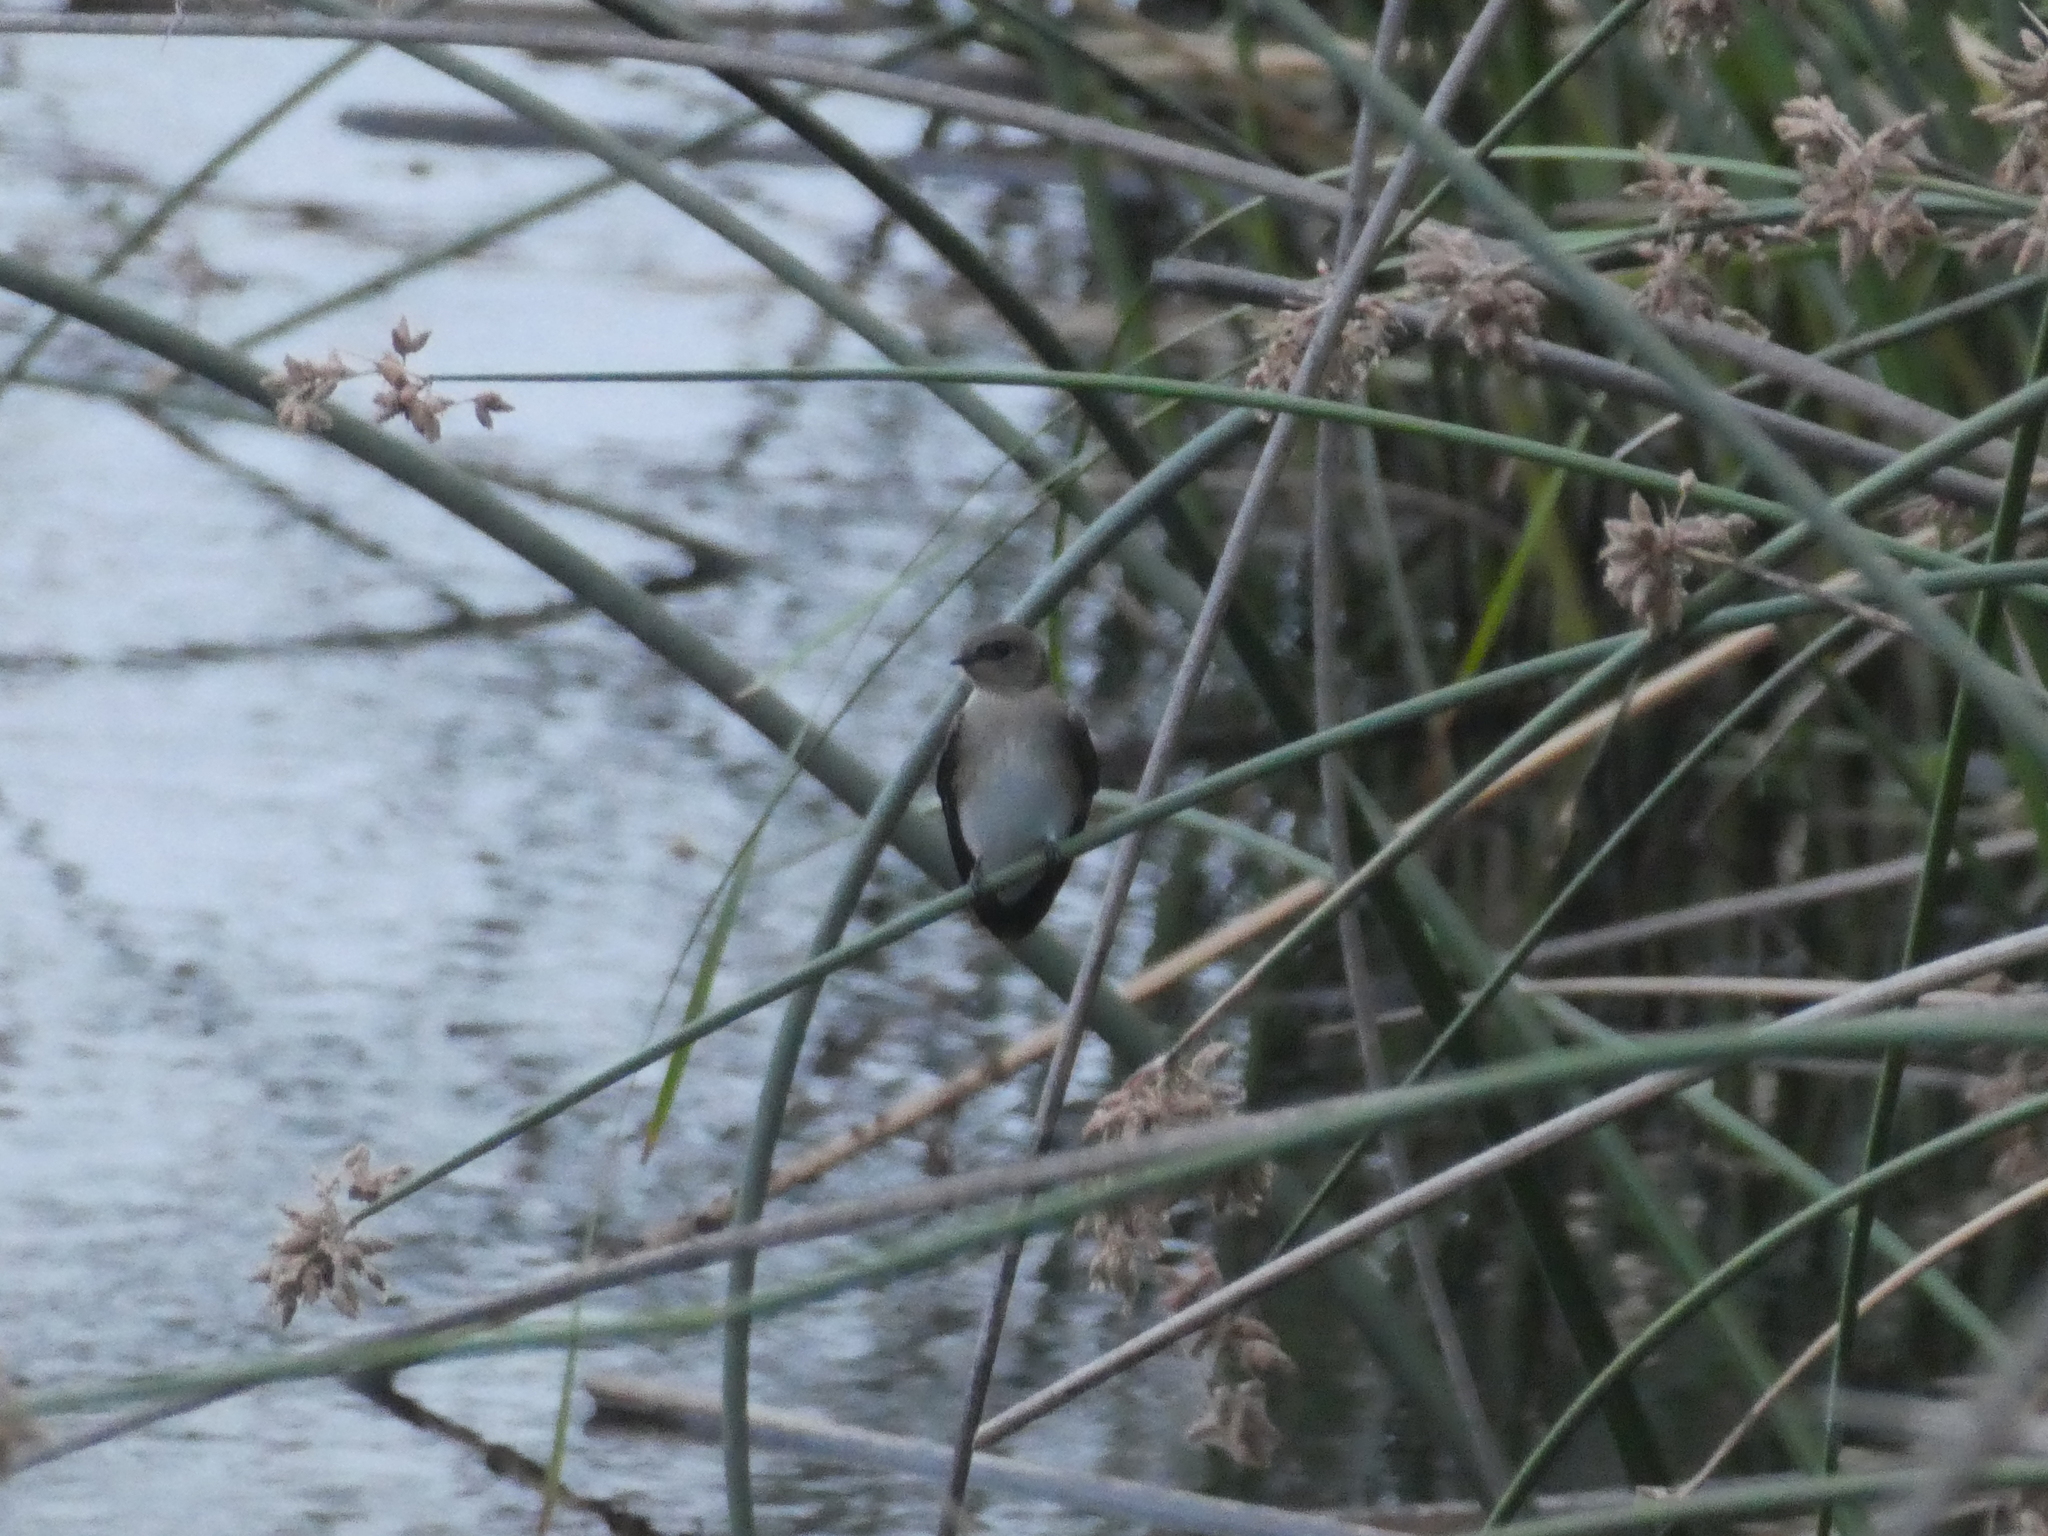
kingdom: Animalia
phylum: Chordata
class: Aves
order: Passeriformes
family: Hirundinidae
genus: Stelgidopteryx
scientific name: Stelgidopteryx serripennis
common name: Northern rough-winged swallow
